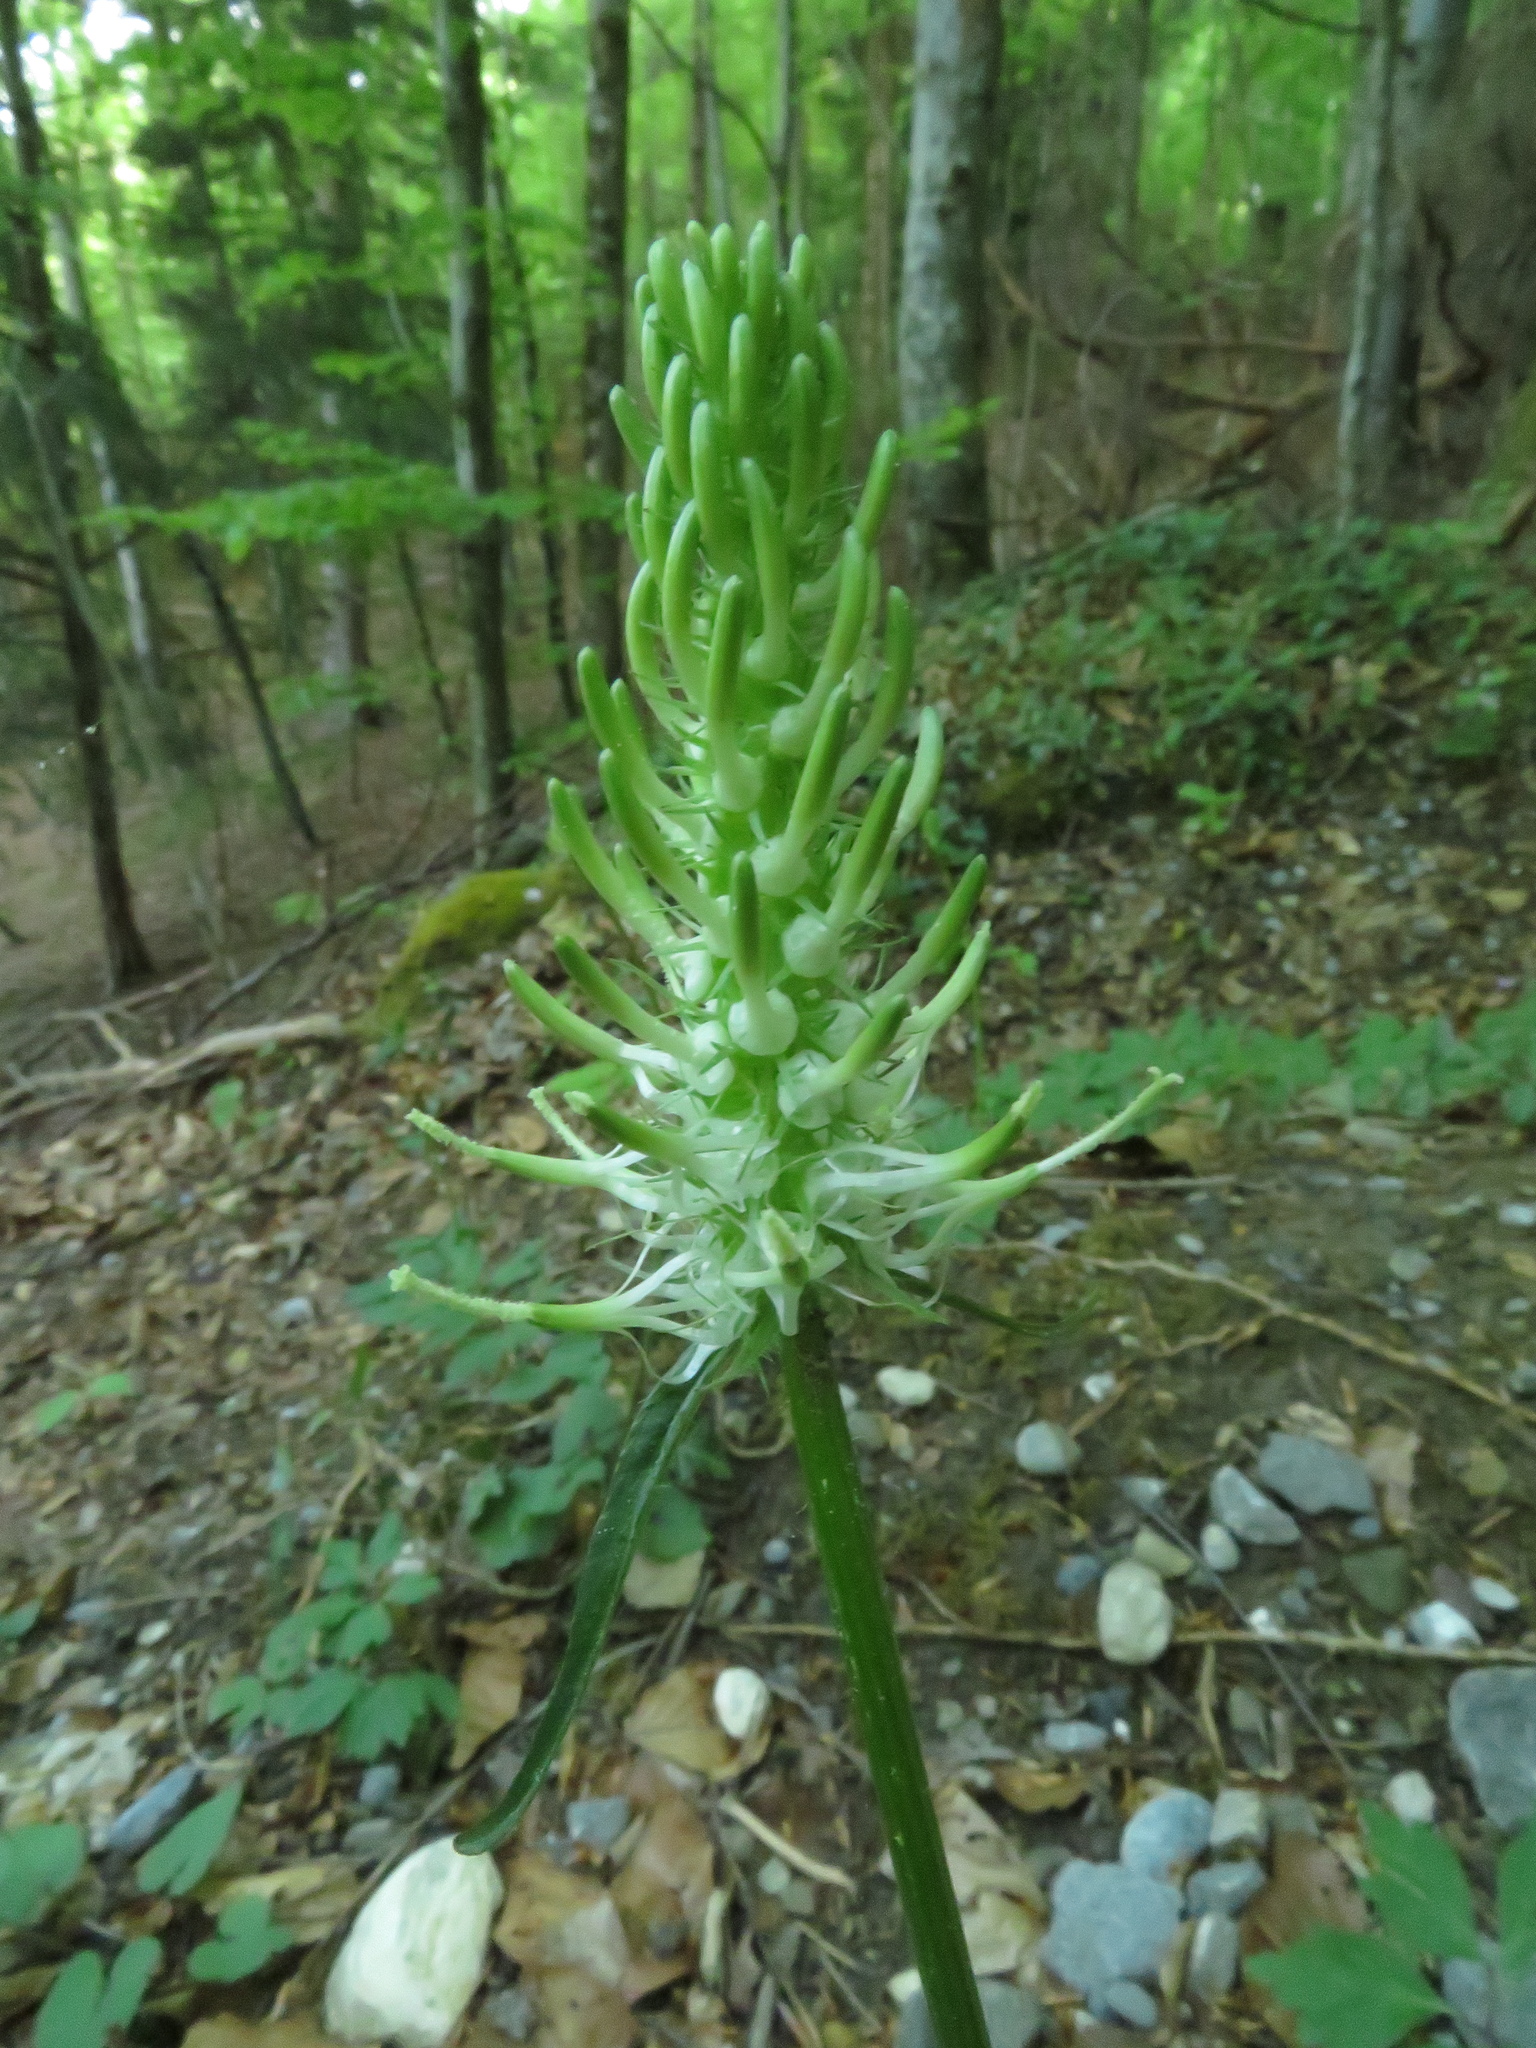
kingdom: Plantae
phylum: Tracheophyta
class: Magnoliopsida
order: Asterales
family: Campanulaceae
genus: Phyteuma
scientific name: Phyteuma spicatum
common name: Spiked rampion
